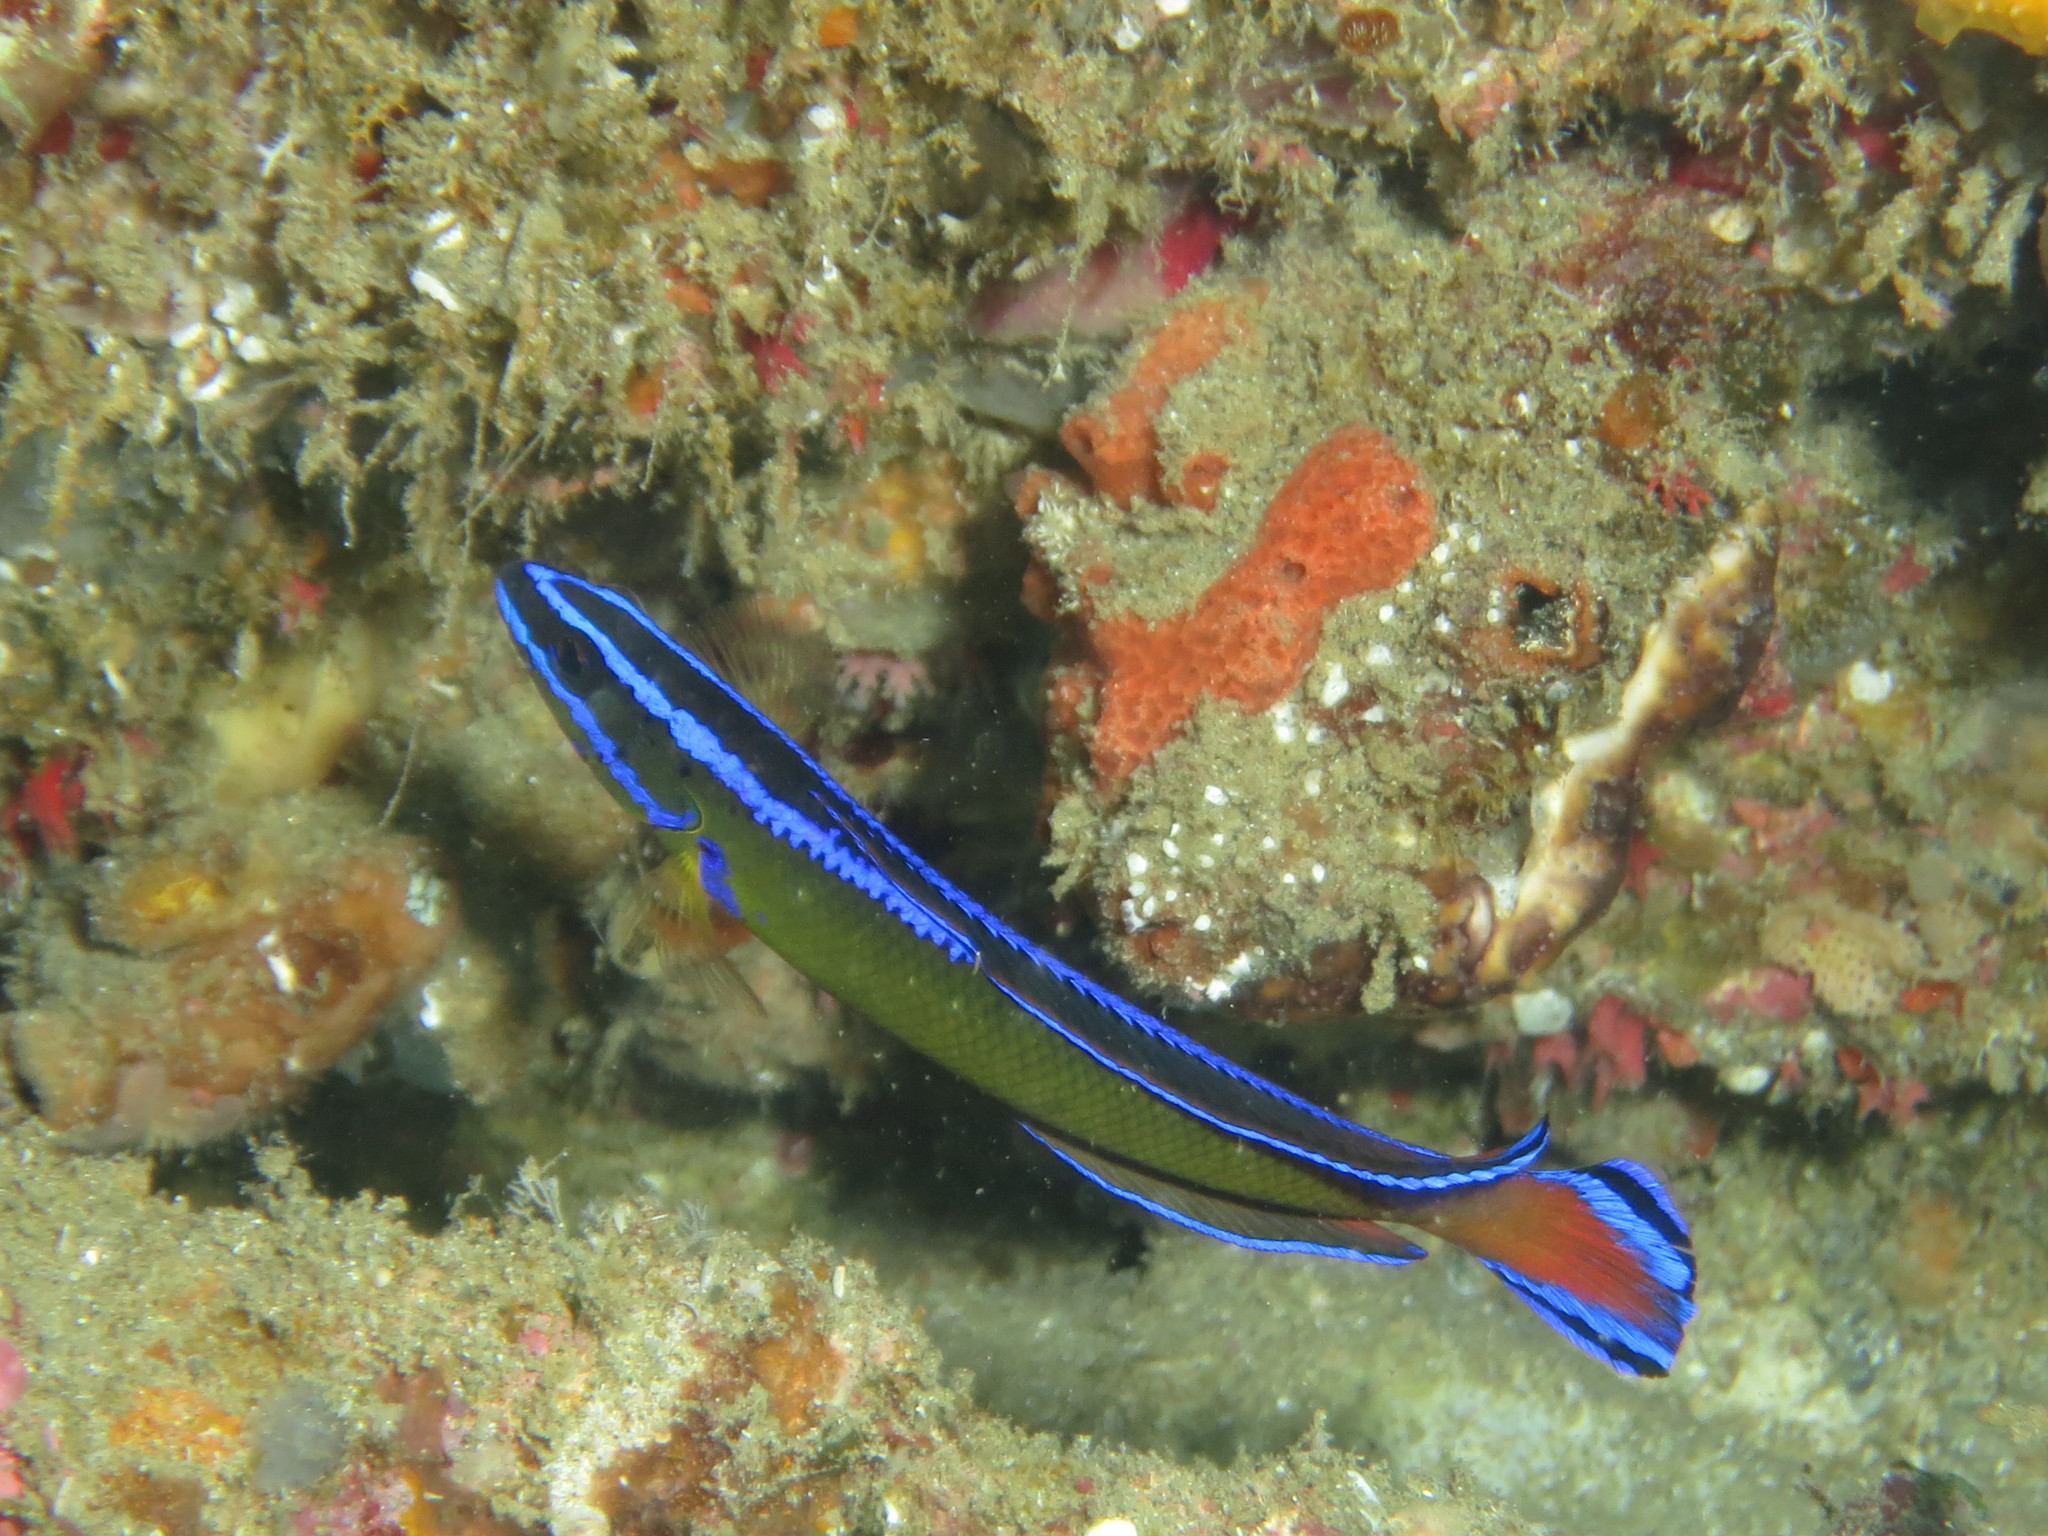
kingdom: Animalia
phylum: Chordata
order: Perciformes
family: Pseudochromidae
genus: Pseudochromis
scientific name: Pseudochromis dutoiti
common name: Dutoiti
